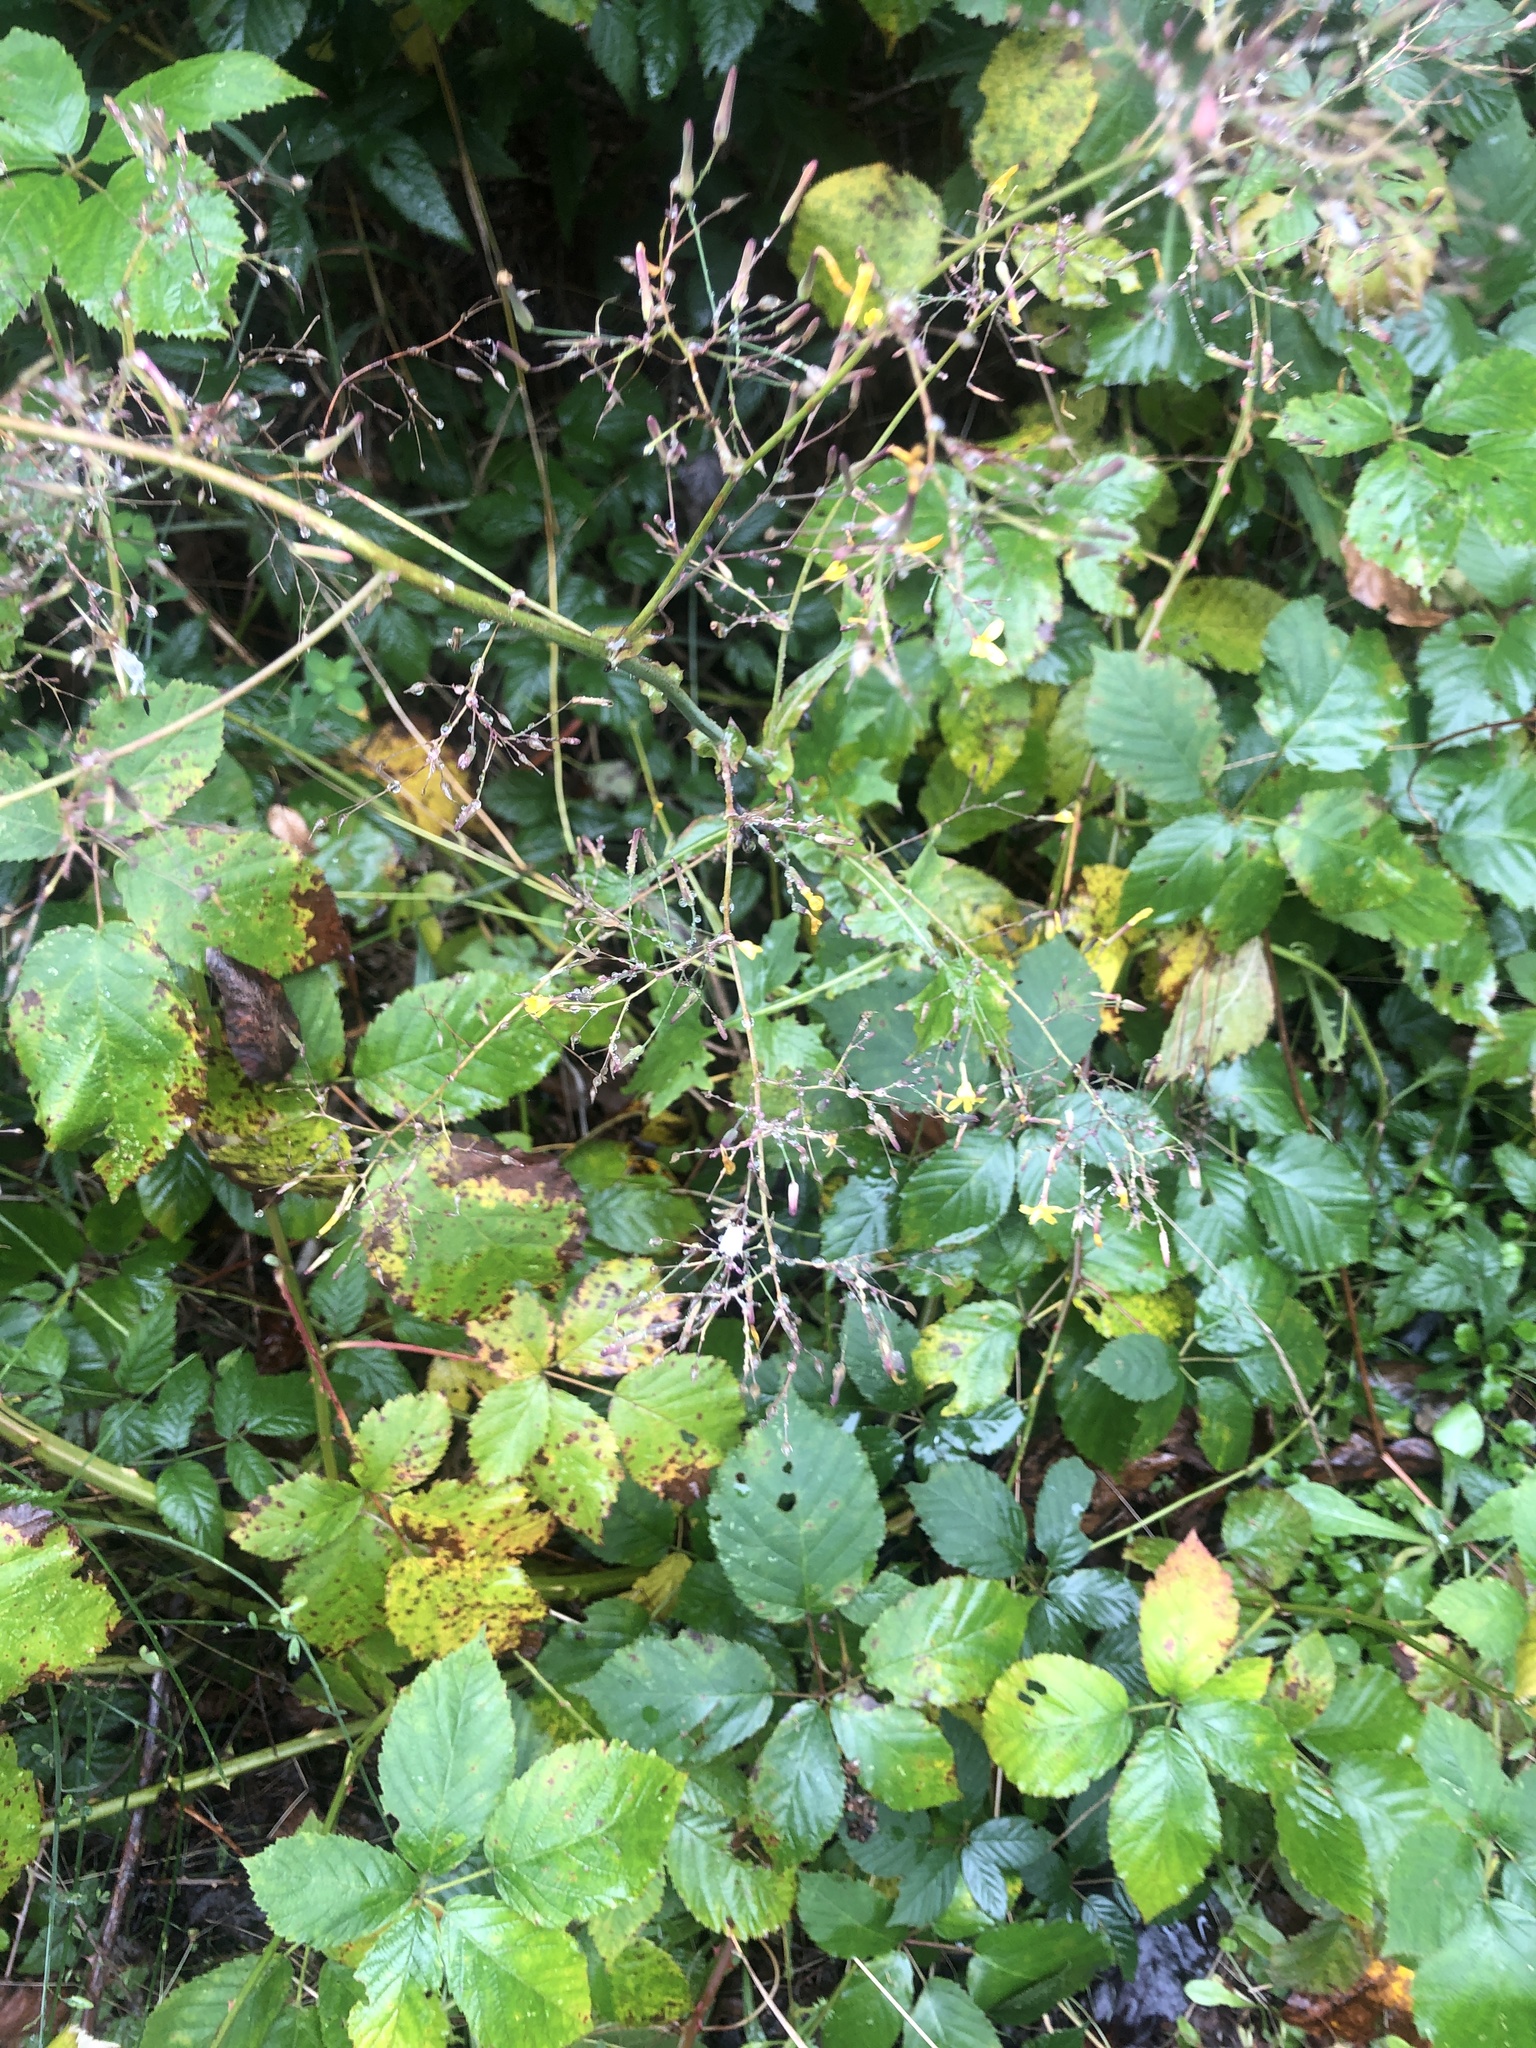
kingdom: Plantae
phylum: Tracheophyta
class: Magnoliopsida
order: Asterales
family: Asteraceae
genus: Mycelis
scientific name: Mycelis muralis
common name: Wall lettuce
